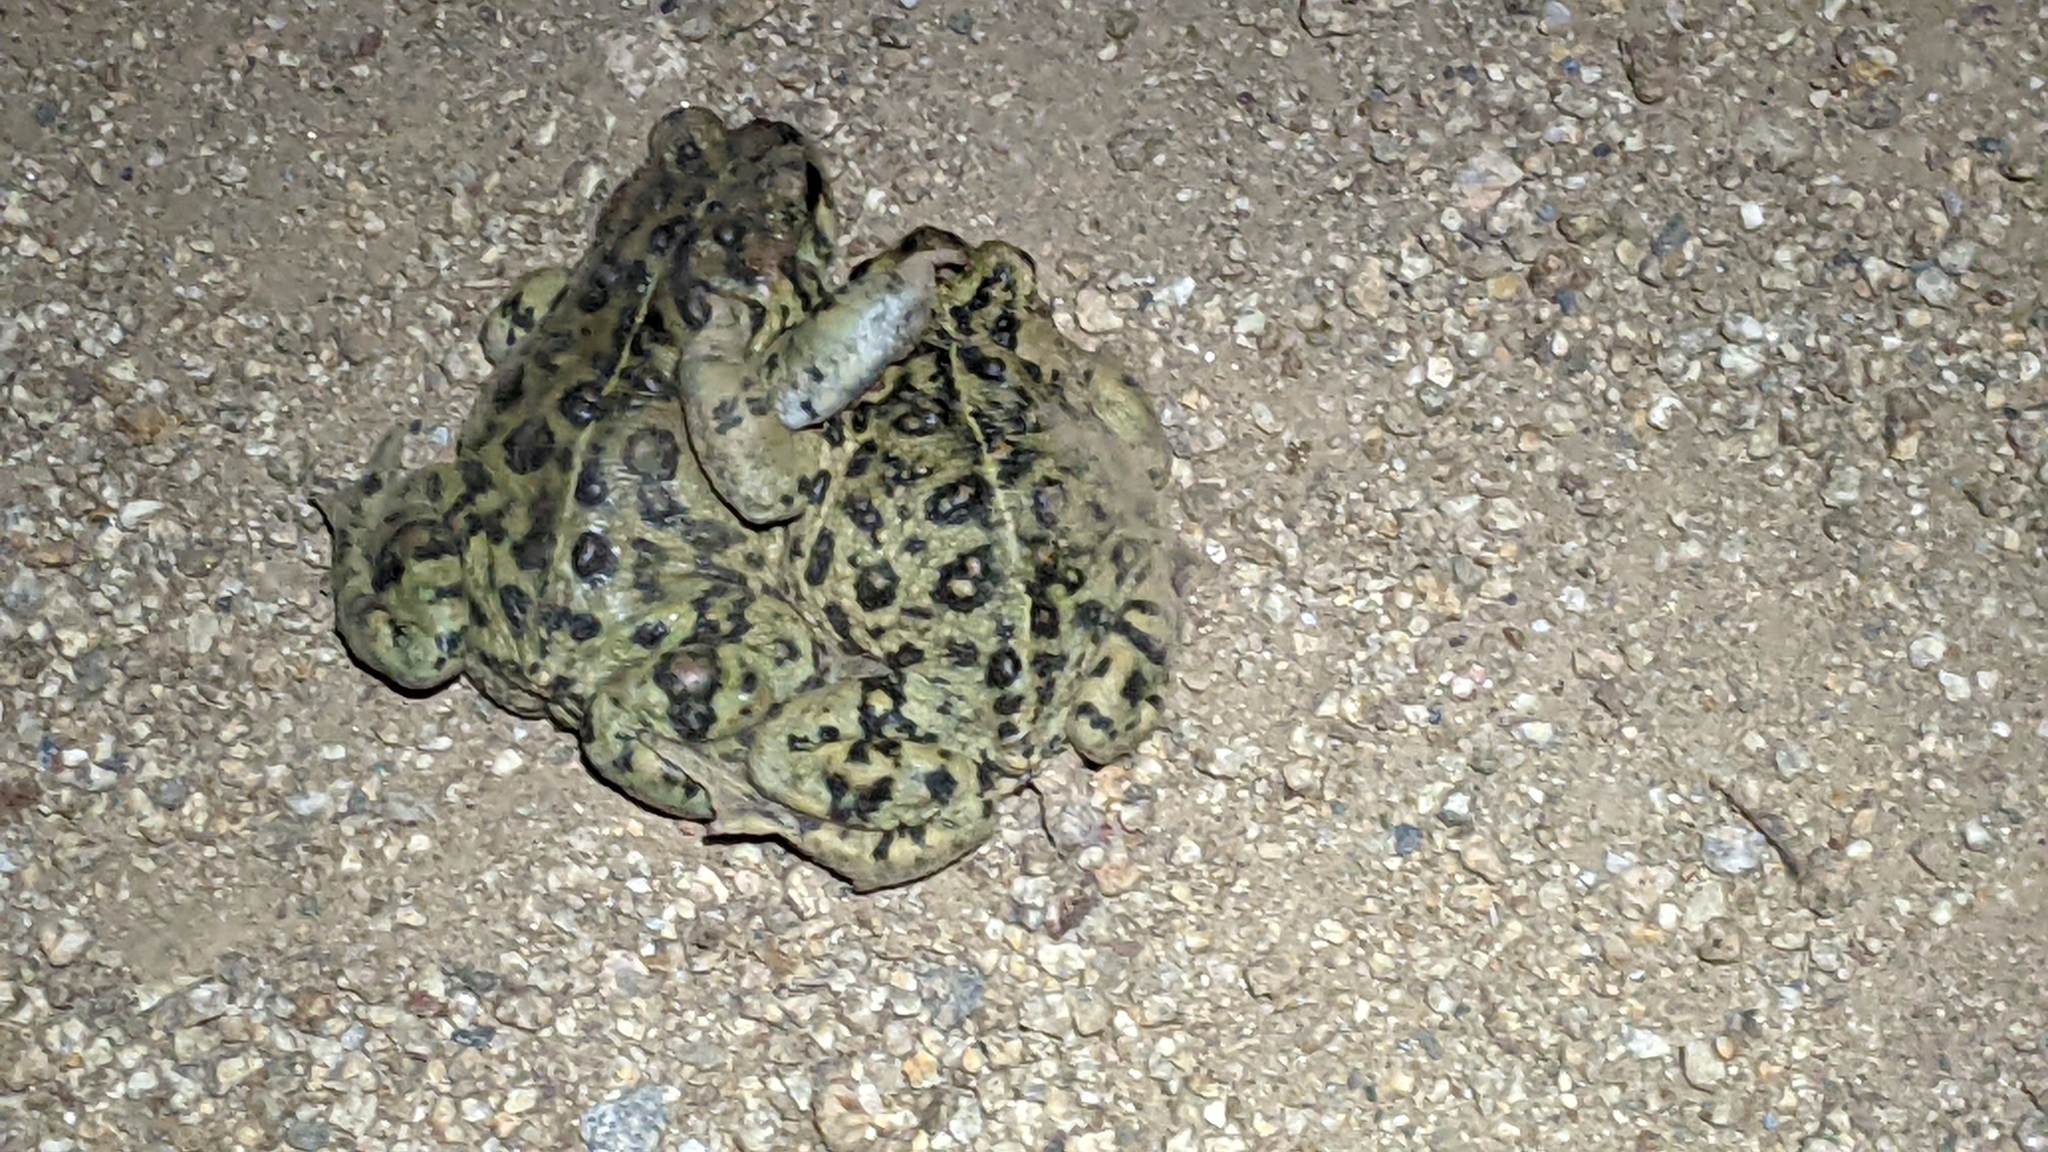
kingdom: Animalia
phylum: Chordata
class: Amphibia
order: Anura
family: Bufonidae
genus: Anaxyrus
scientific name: Anaxyrus boreas
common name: Western toad
